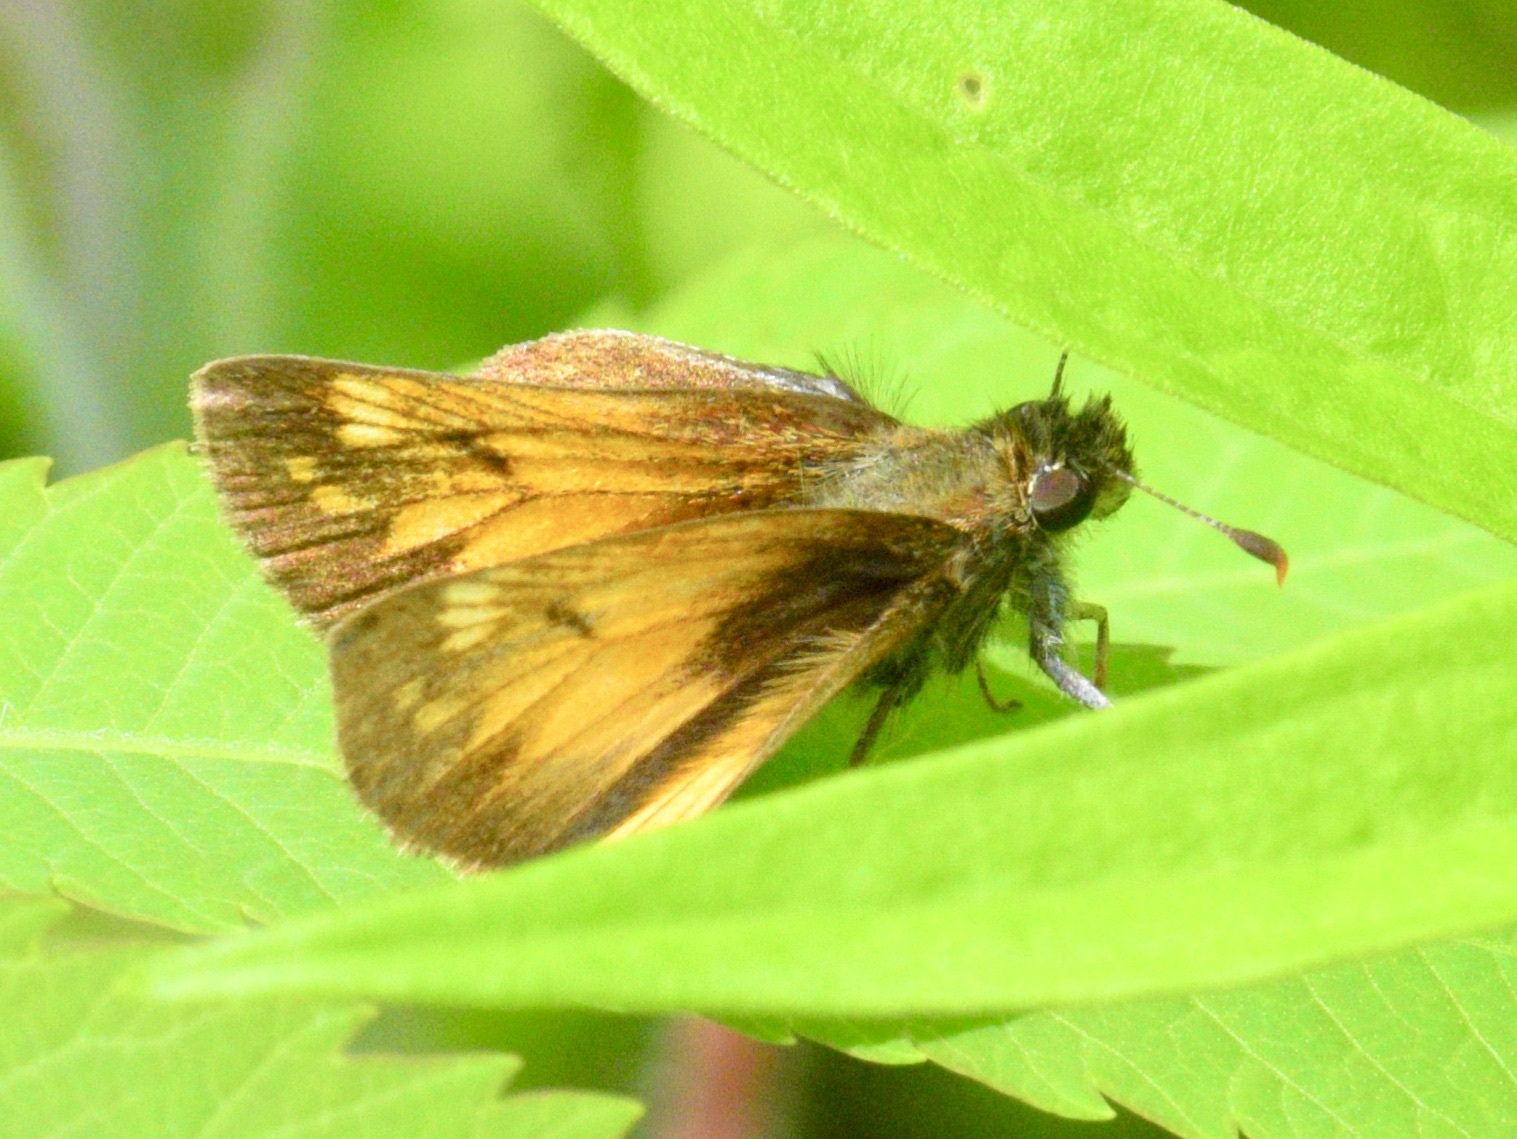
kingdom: Animalia
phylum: Arthropoda
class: Insecta
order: Lepidoptera
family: Hesperiidae
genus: Lon
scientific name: Lon hobomok
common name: Hobomok skipper
